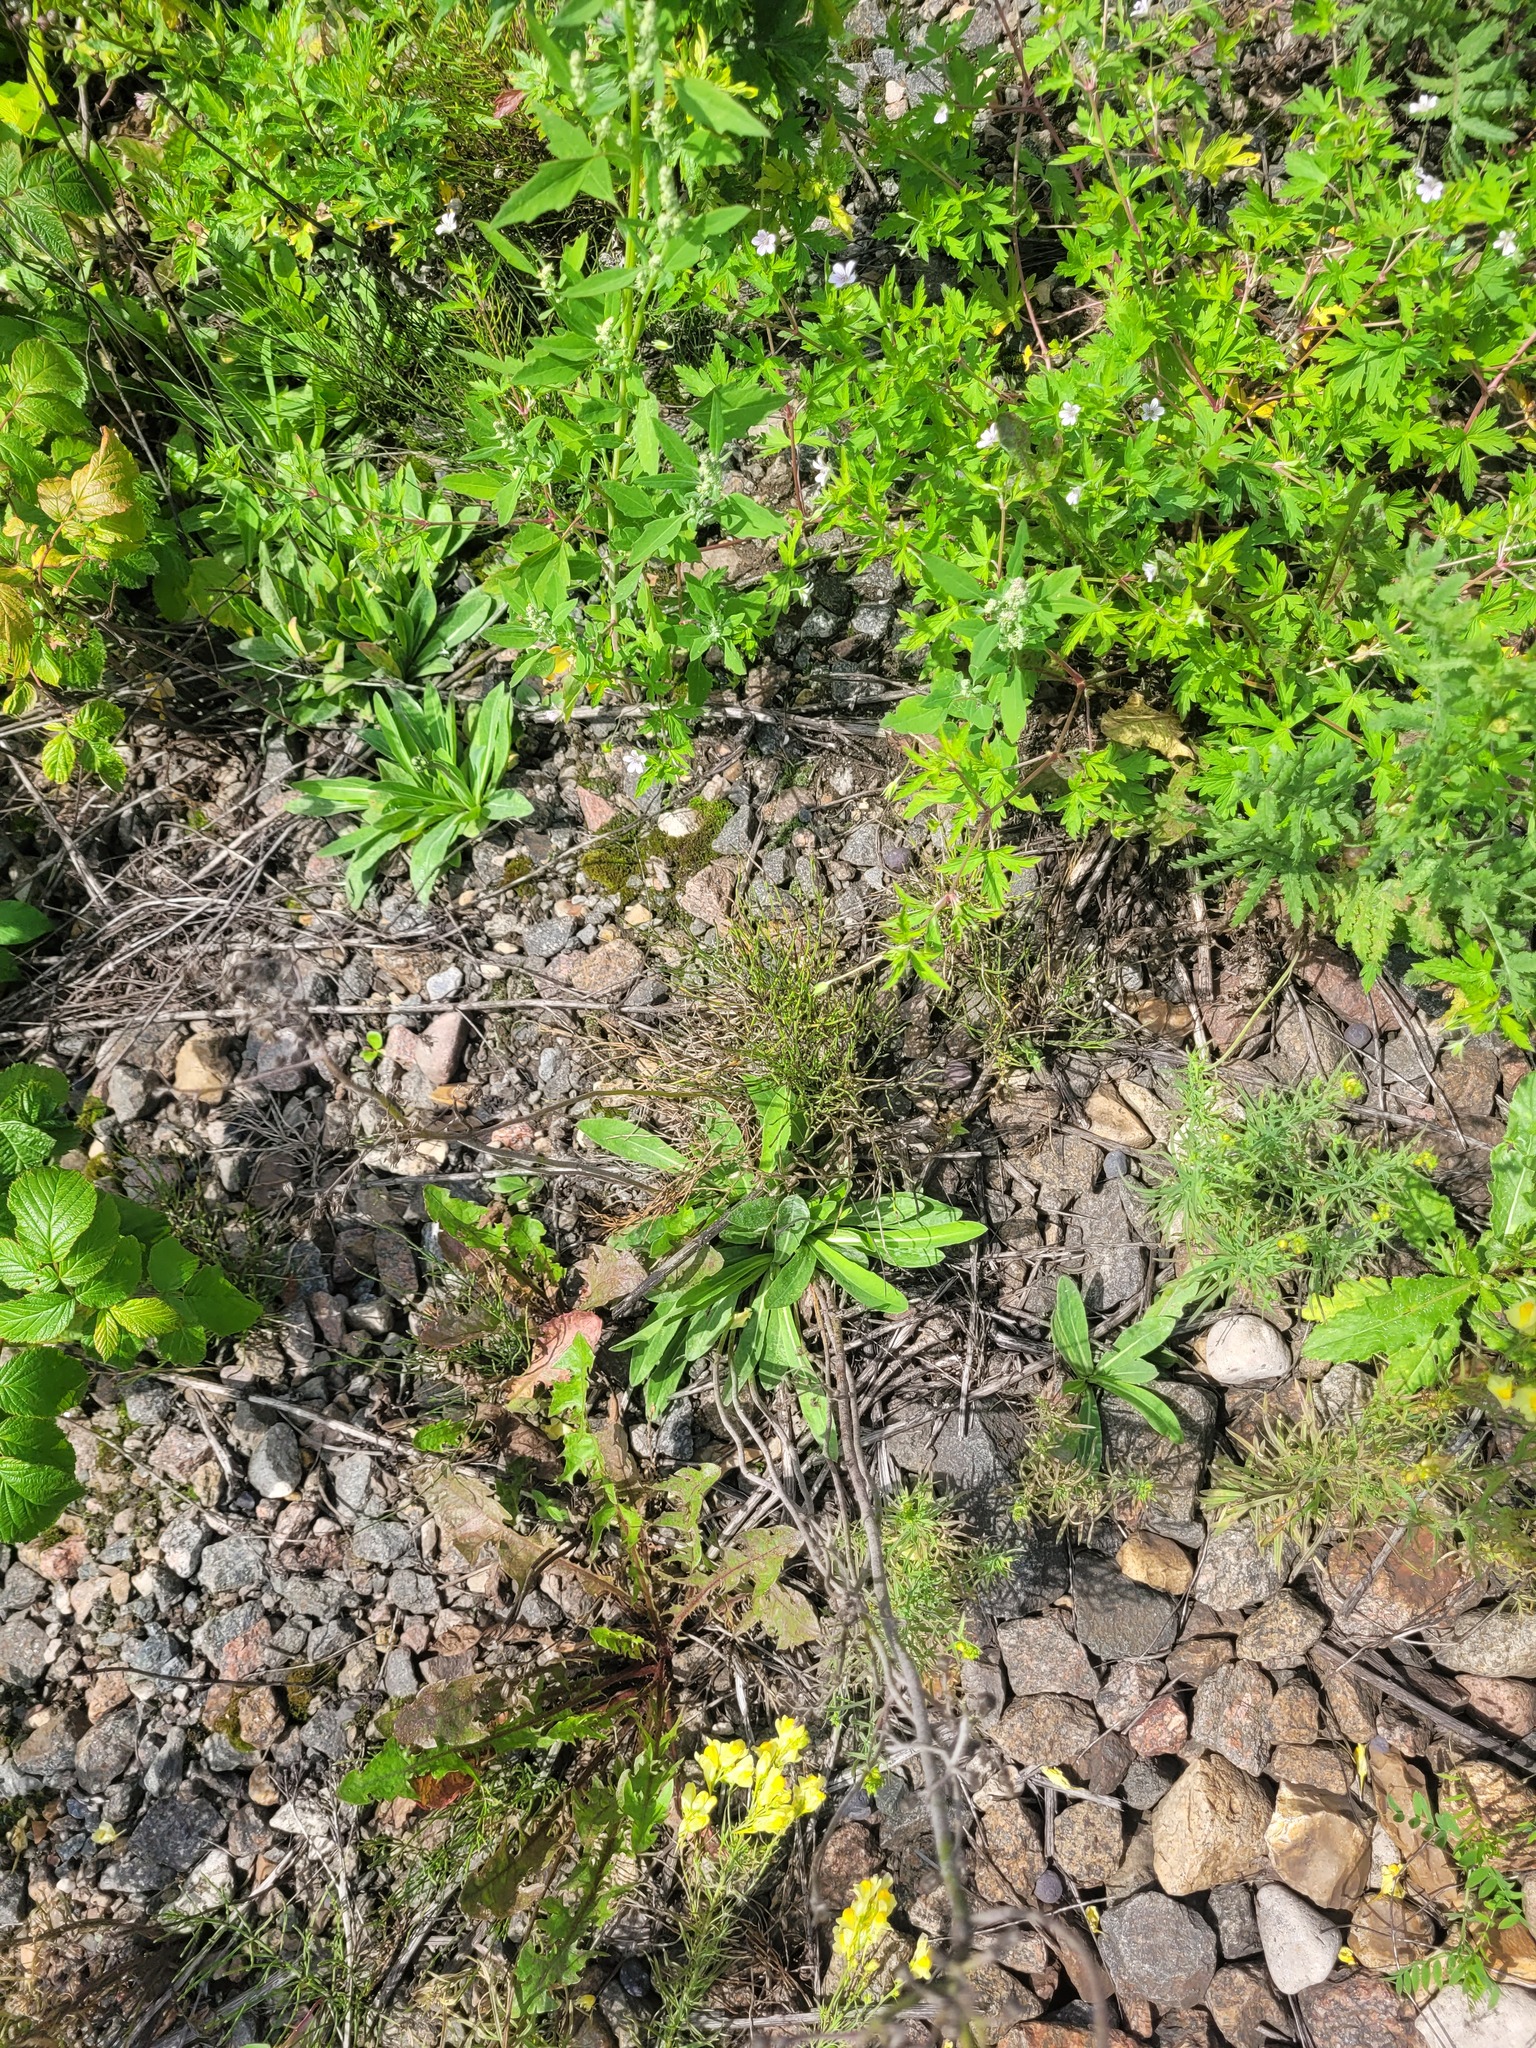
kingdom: Plantae
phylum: Tracheophyta
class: Magnoliopsida
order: Asterales
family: Asteraceae
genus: Pilosella
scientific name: Pilosella
